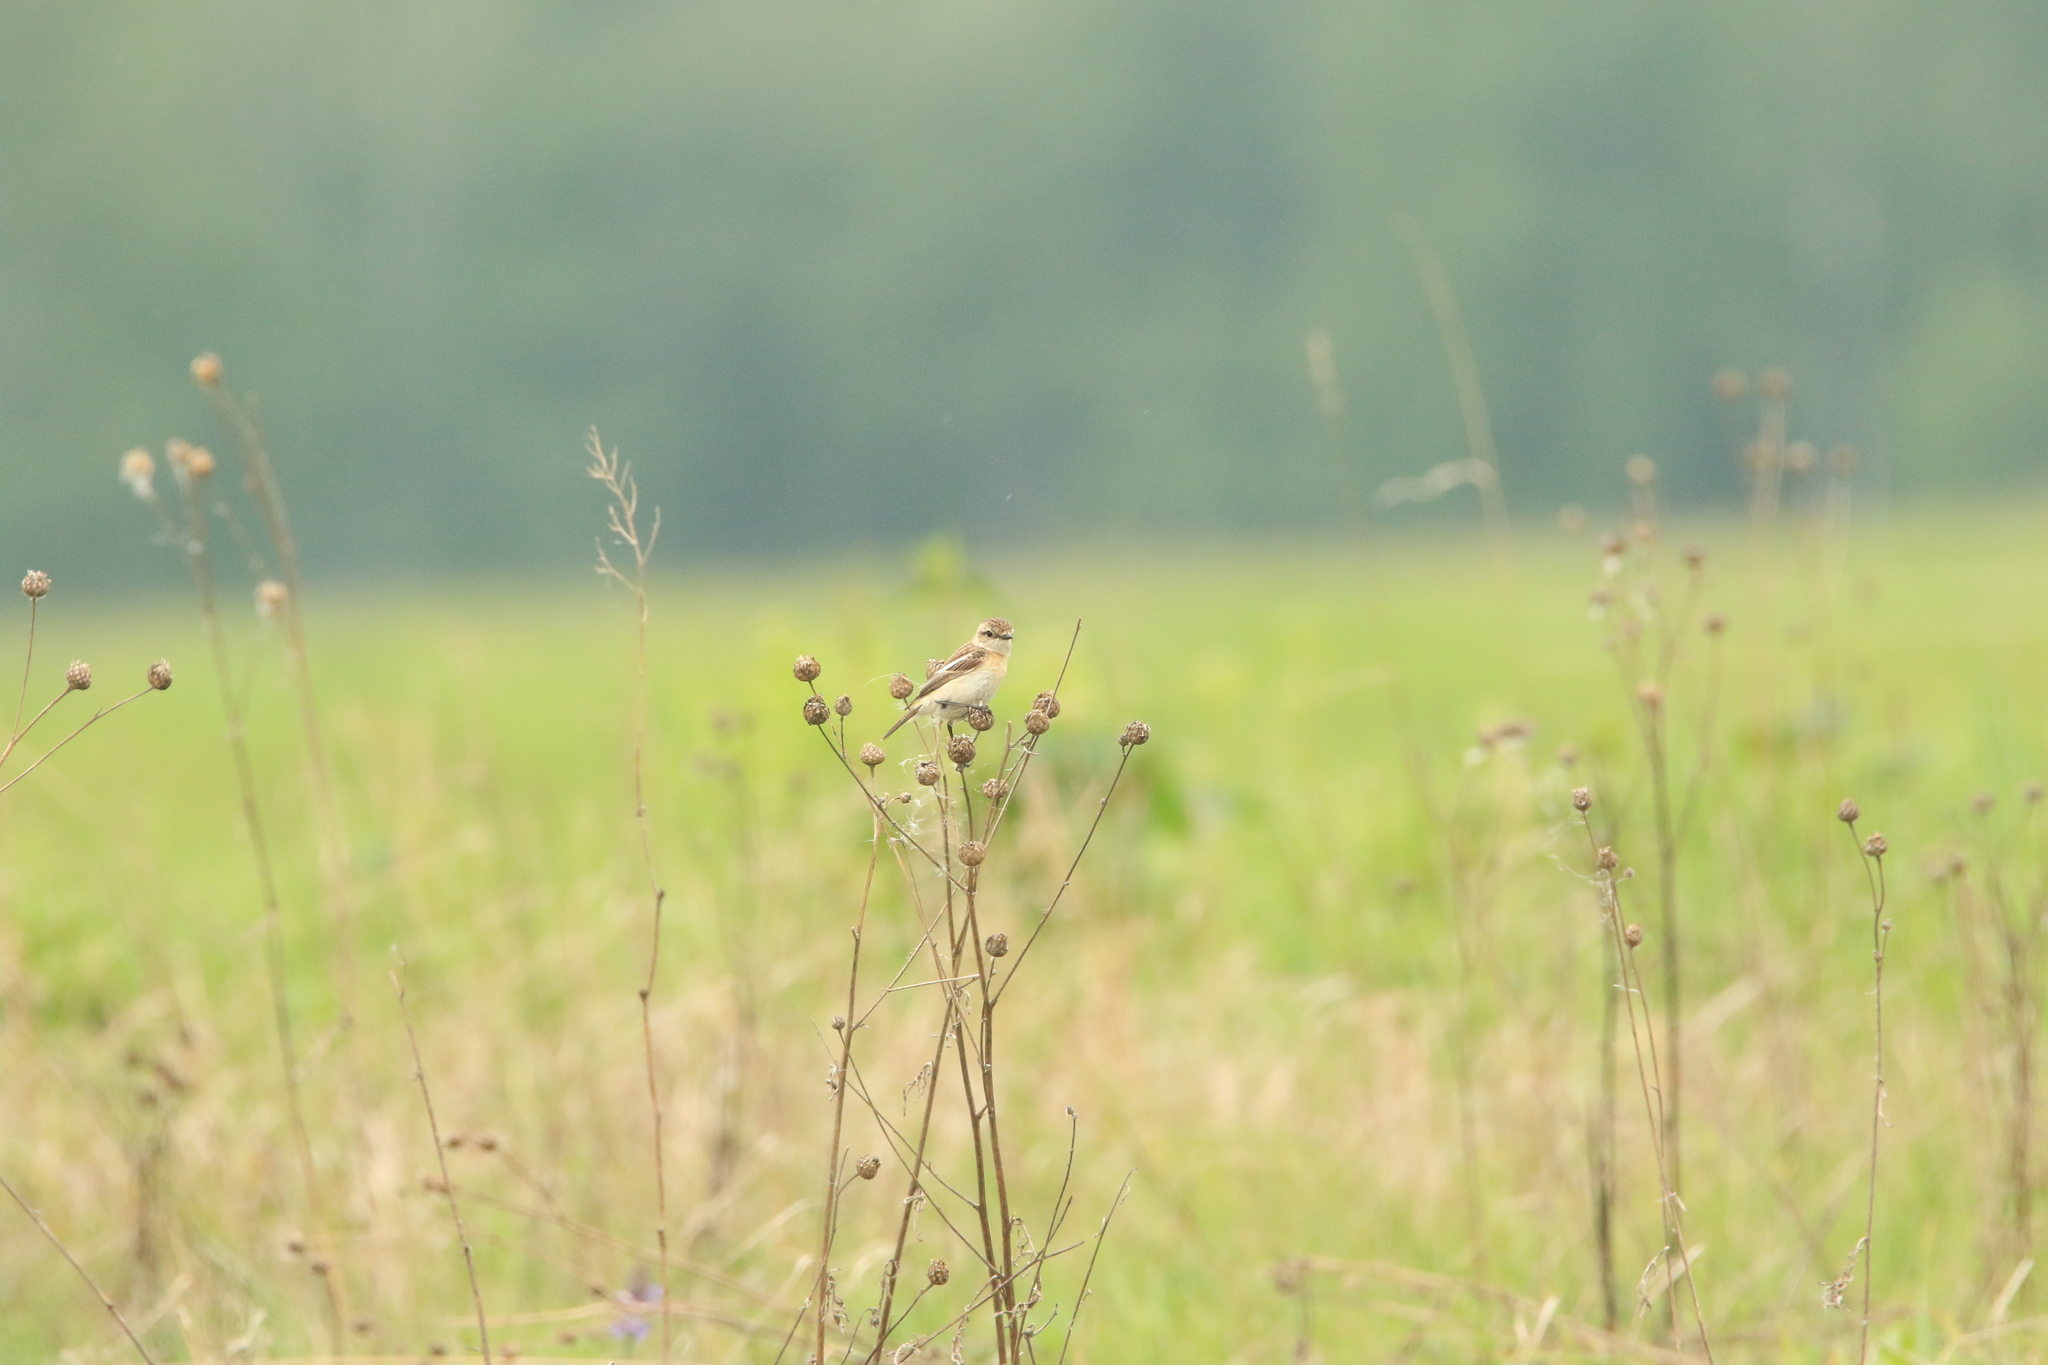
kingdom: Animalia
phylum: Chordata
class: Aves
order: Passeriformes
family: Muscicapidae
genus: Saxicola
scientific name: Saxicola maurus
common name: Siberian stonechat
